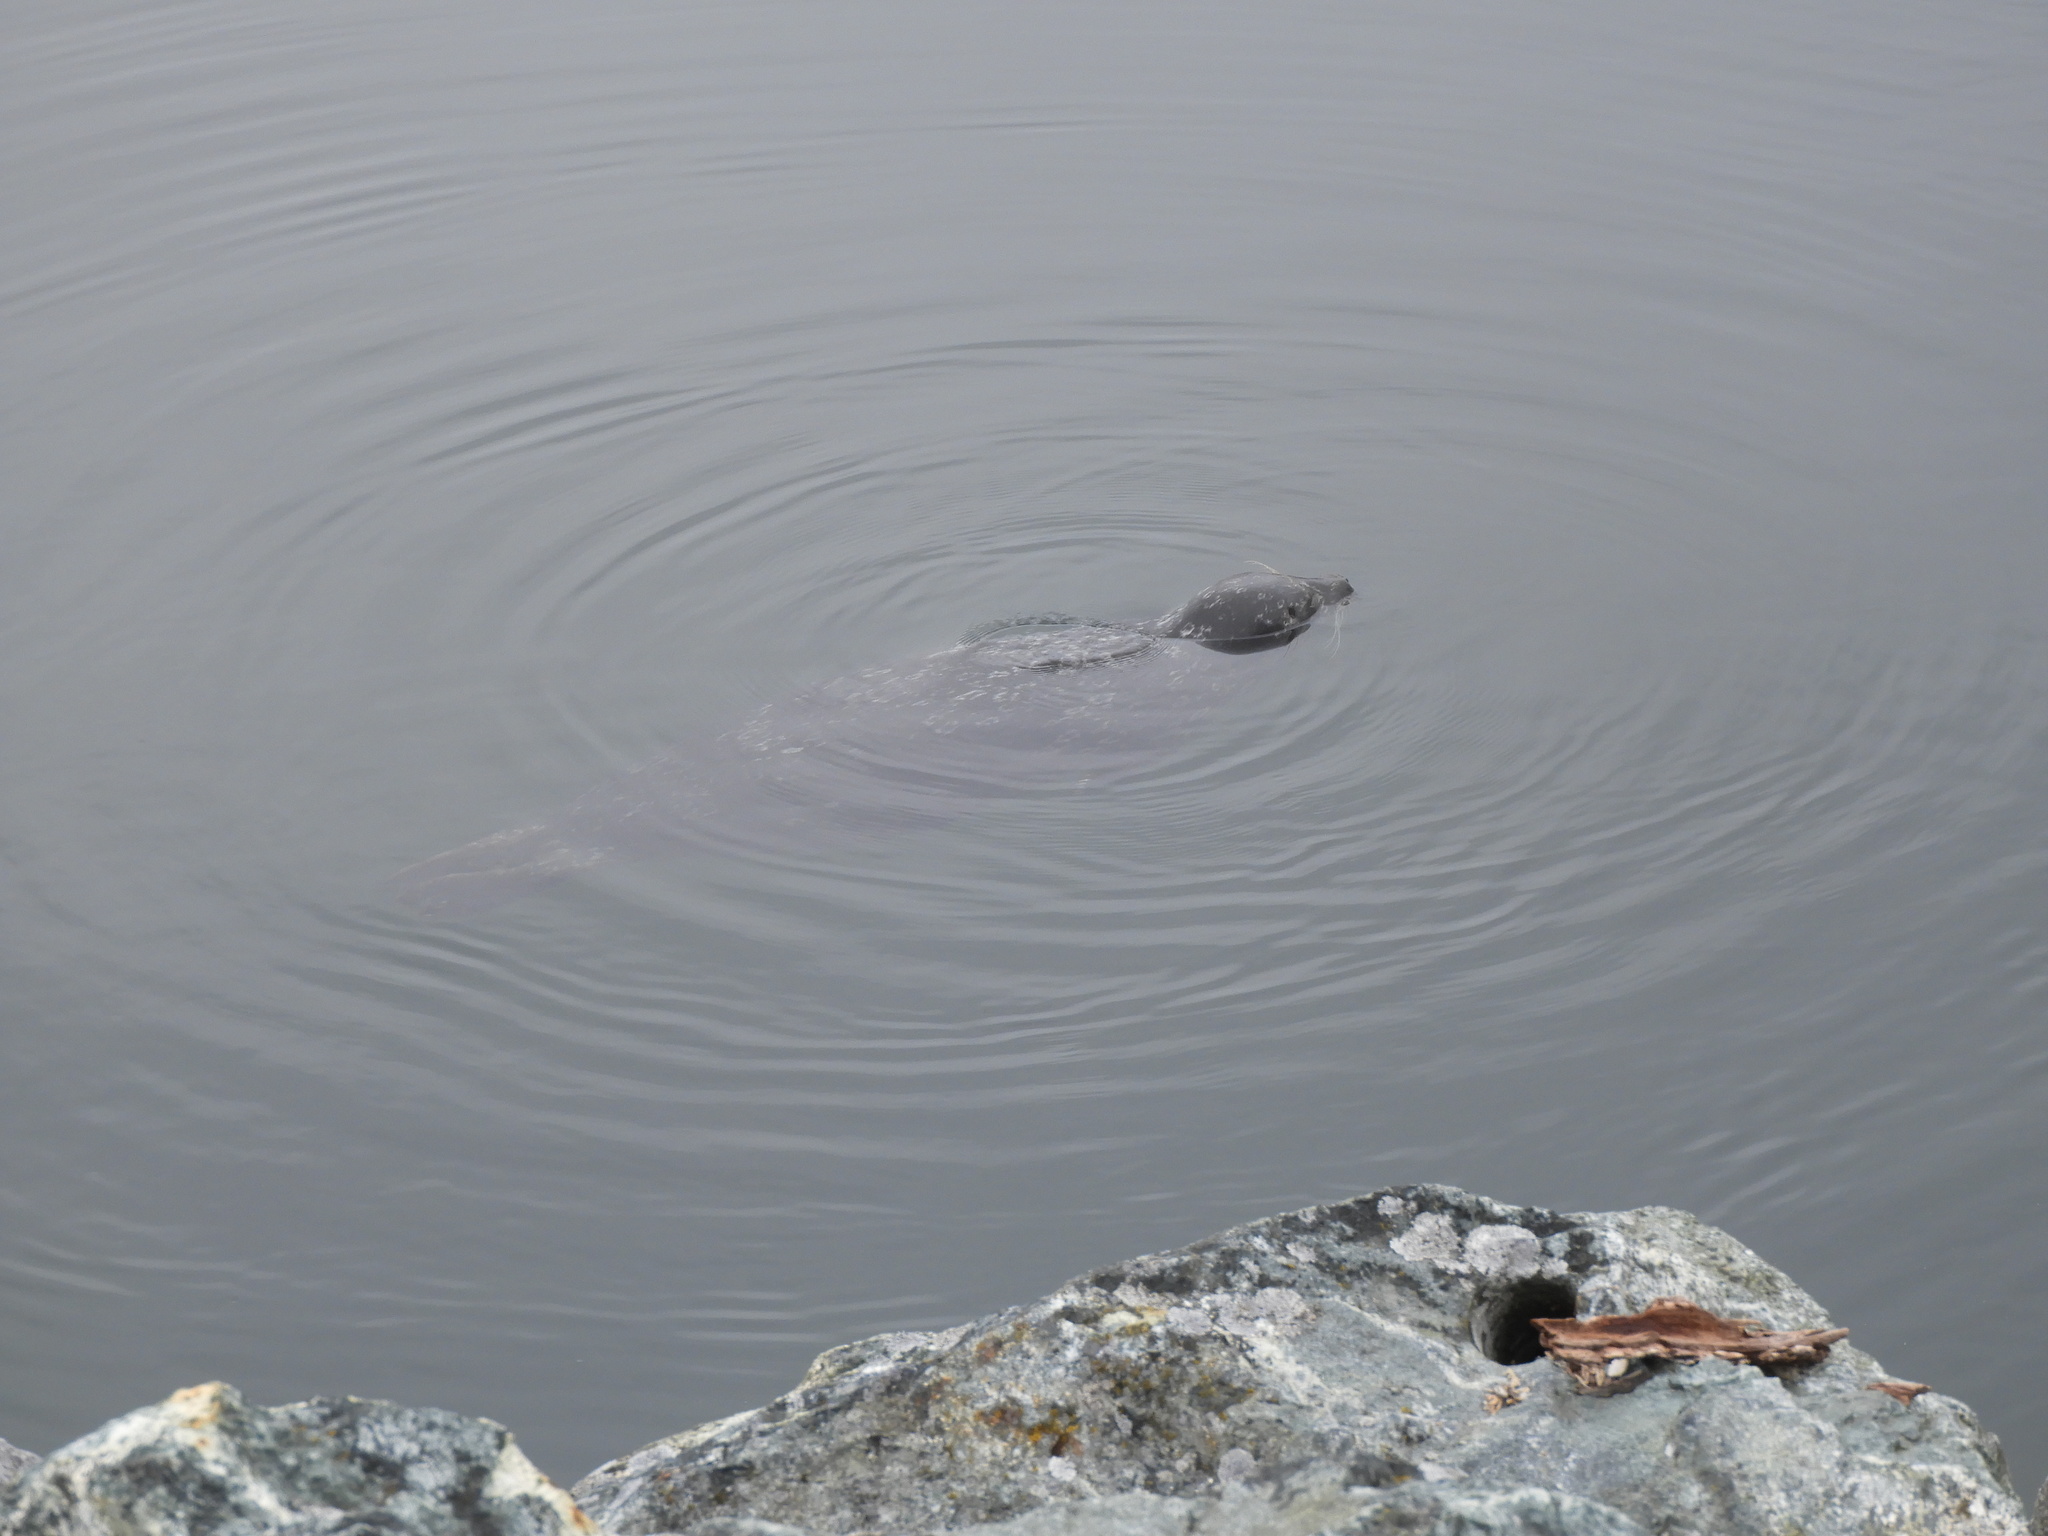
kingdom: Animalia
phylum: Chordata
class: Mammalia
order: Carnivora
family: Phocidae
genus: Phoca
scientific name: Phoca vitulina
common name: Harbor seal
